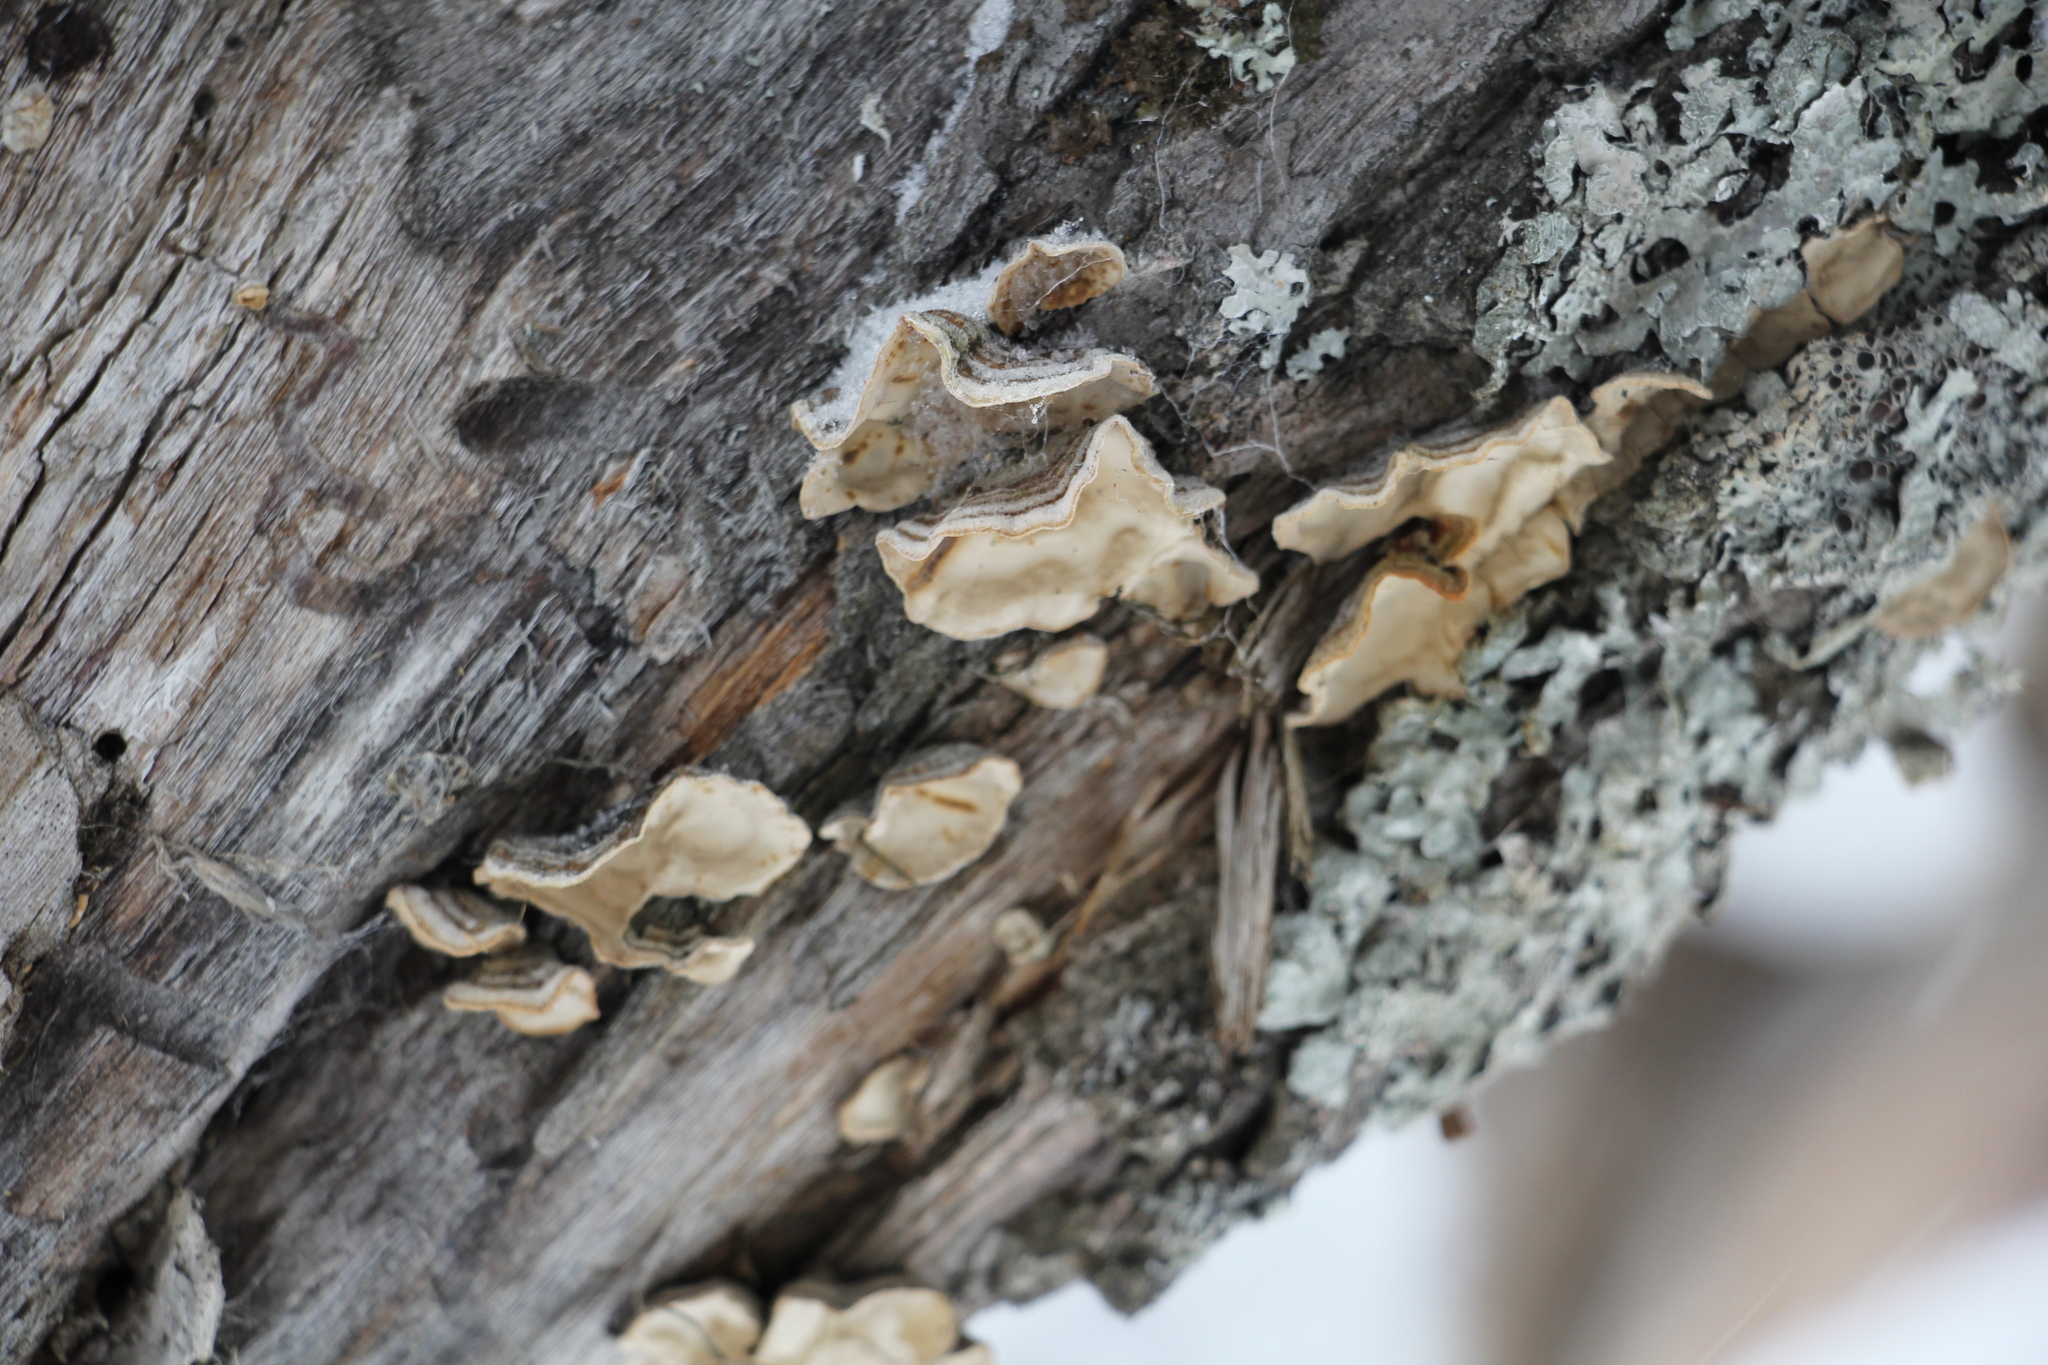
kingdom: Fungi
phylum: Basidiomycota
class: Agaricomycetes
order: Russulales
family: Stereaceae
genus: Stereum
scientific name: Stereum subtomentosum
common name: Yellowing curtain crust
